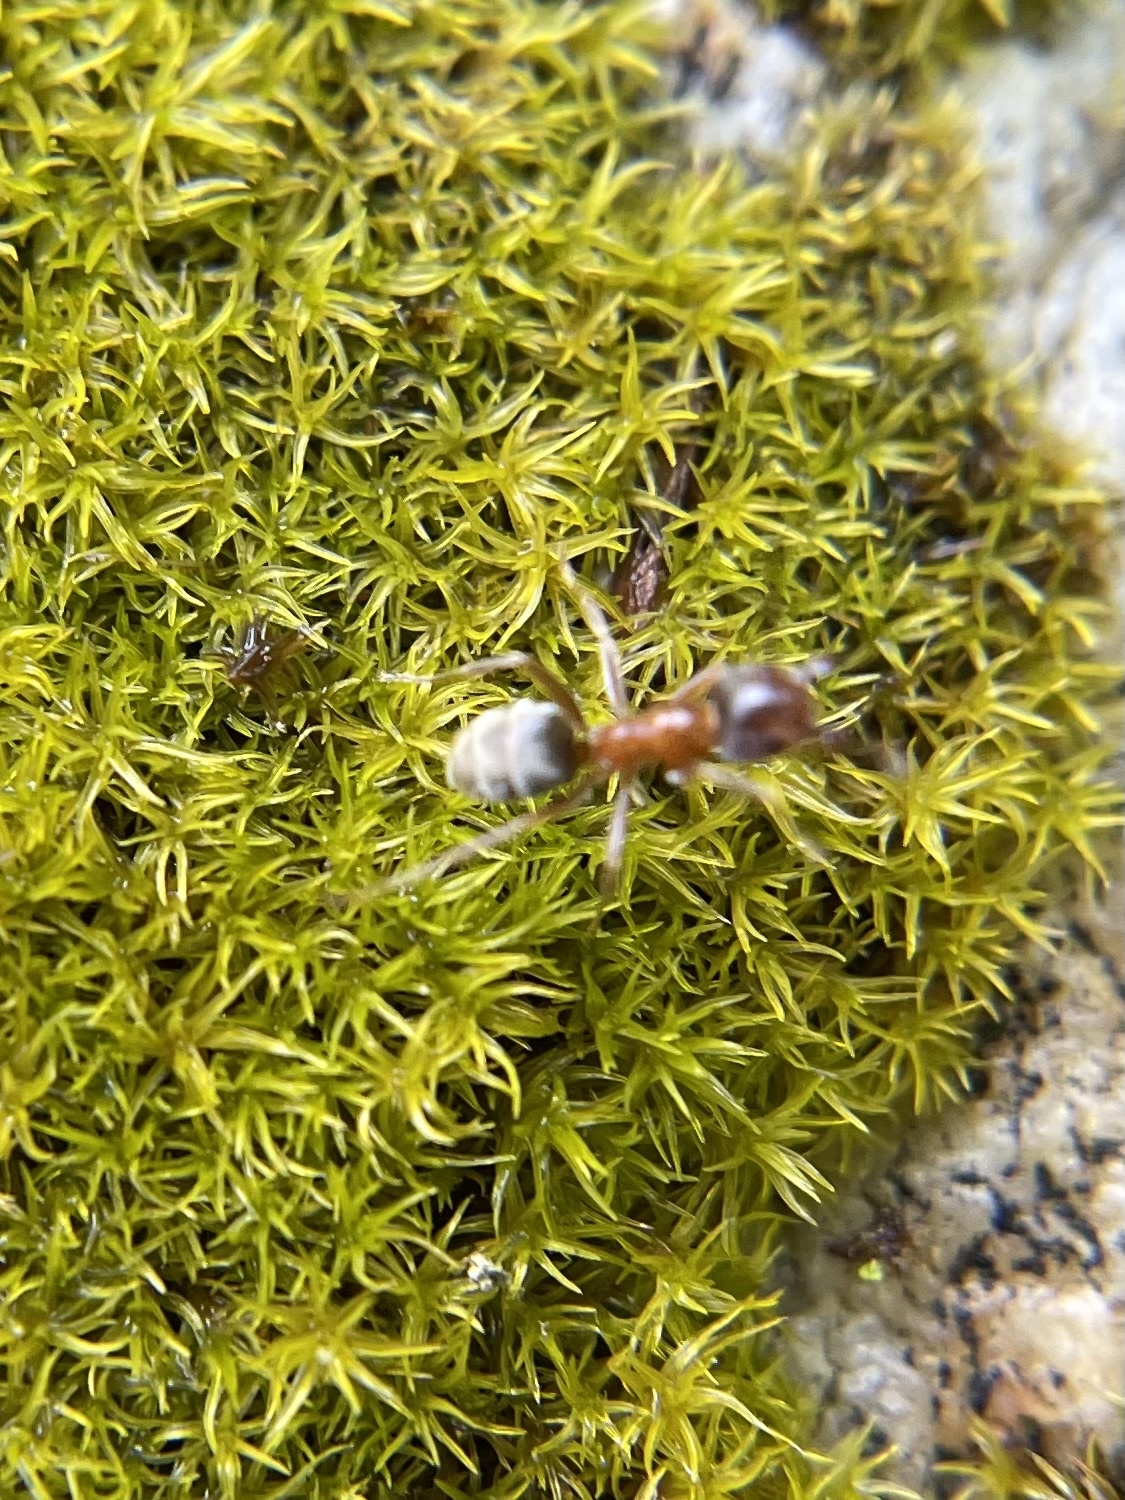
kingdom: Animalia
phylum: Arthropoda
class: Insecta
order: Hymenoptera
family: Formicidae
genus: Liometopum
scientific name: Liometopum occidentale
